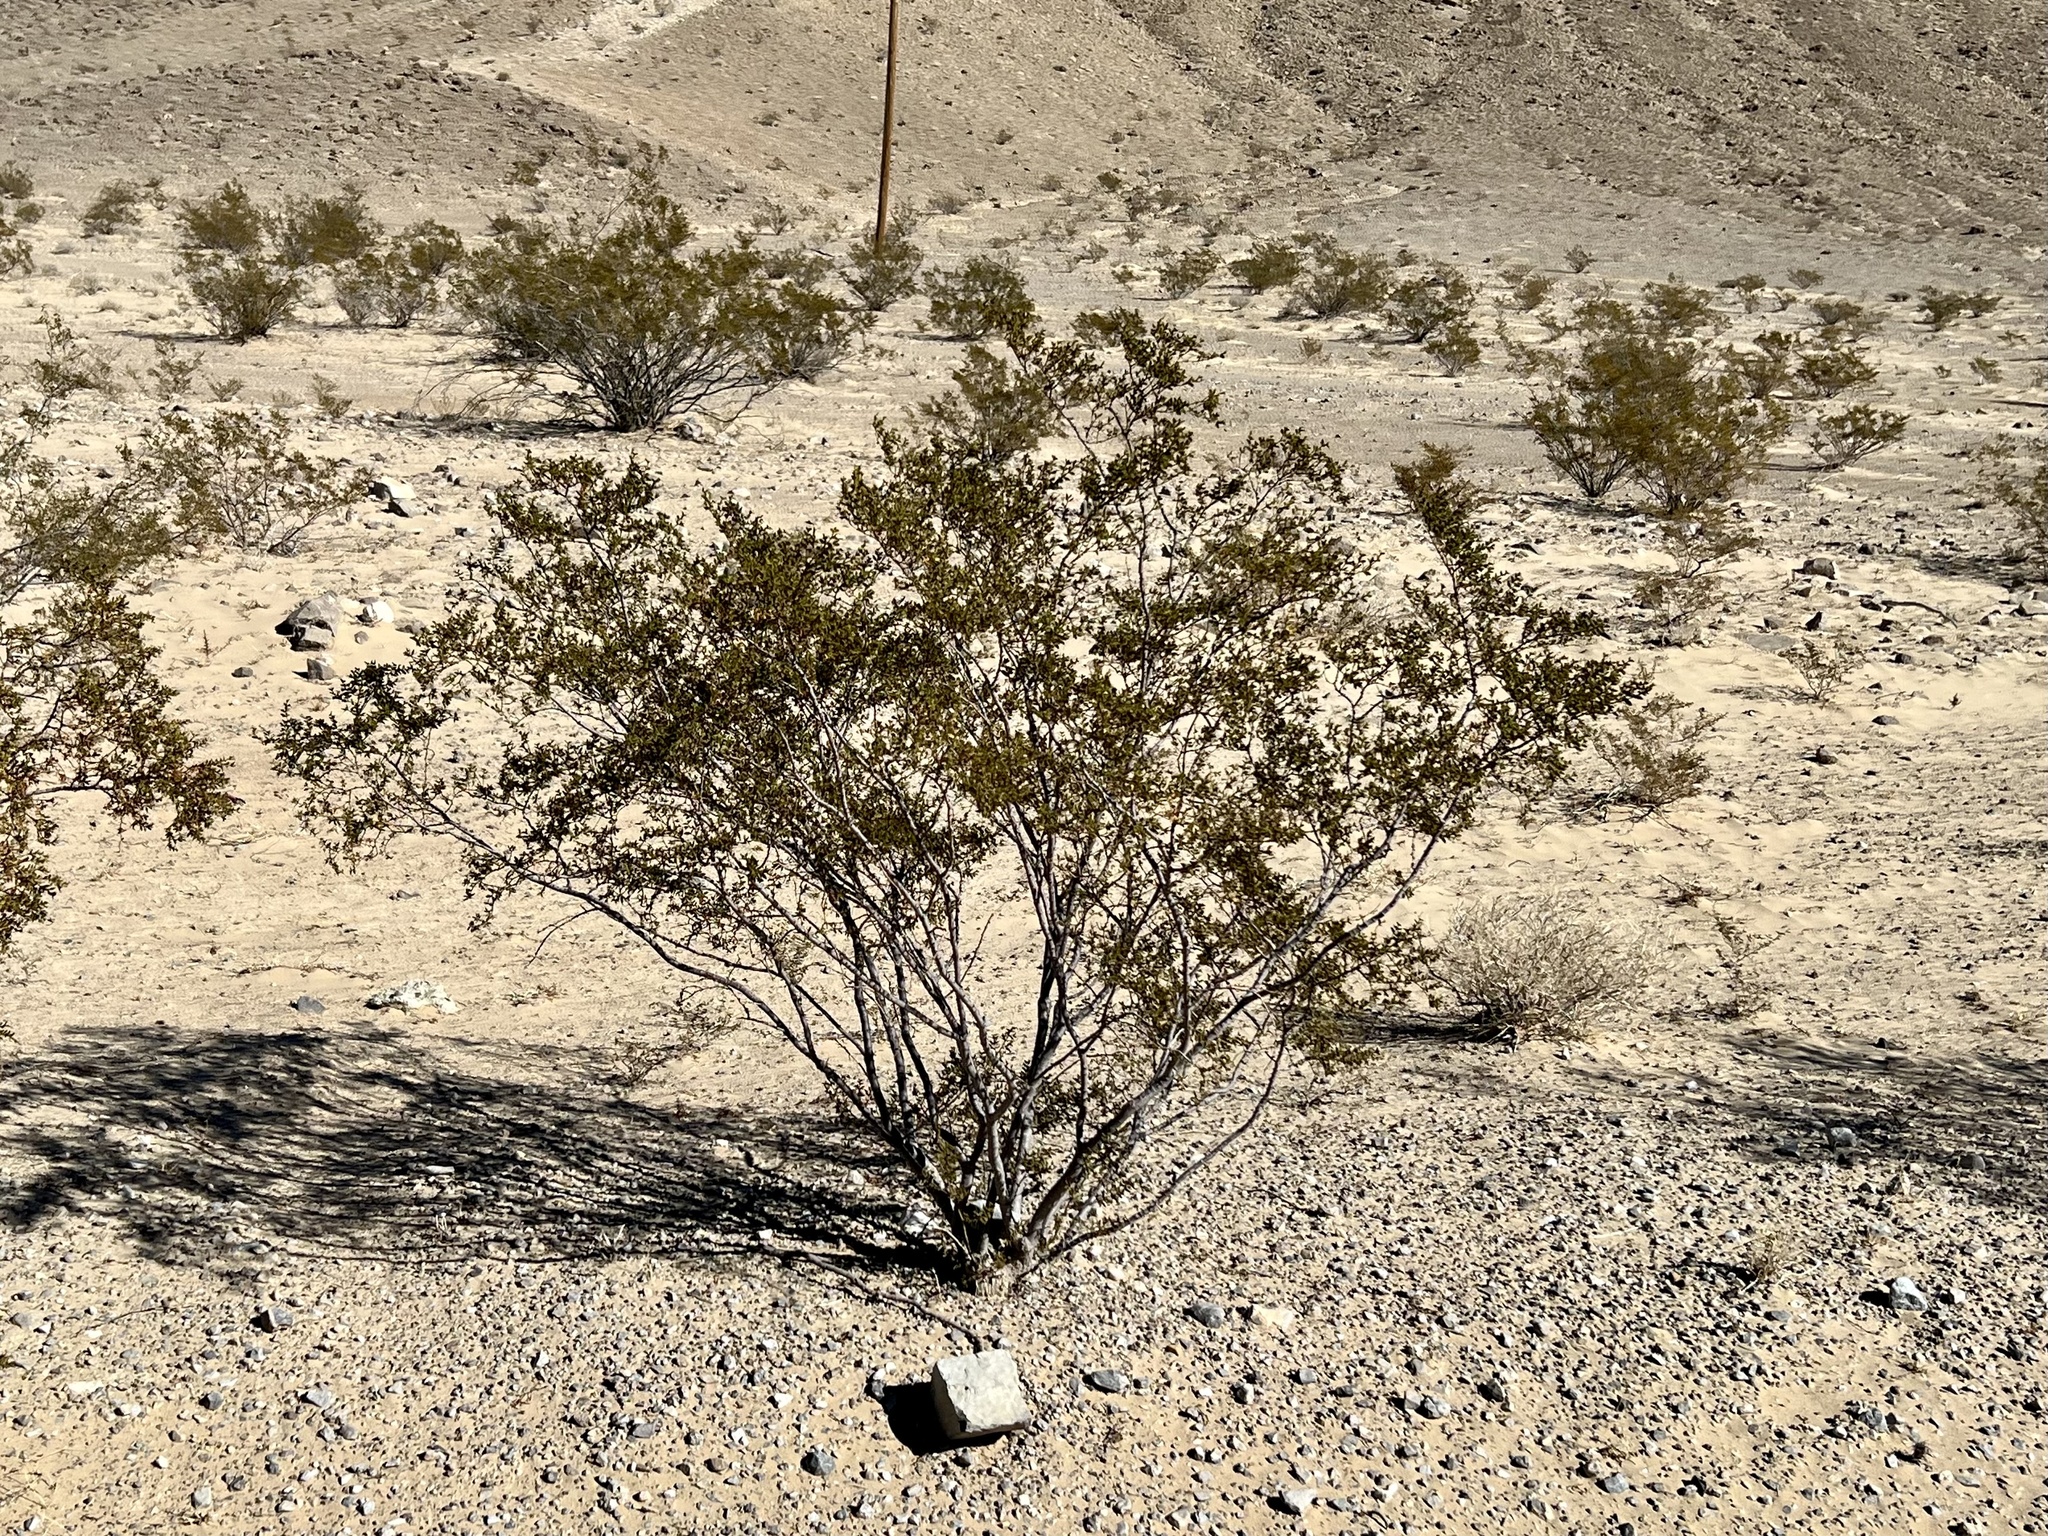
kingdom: Plantae
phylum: Tracheophyta
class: Magnoliopsida
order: Zygophyllales
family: Zygophyllaceae
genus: Larrea
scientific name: Larrea tridentata
